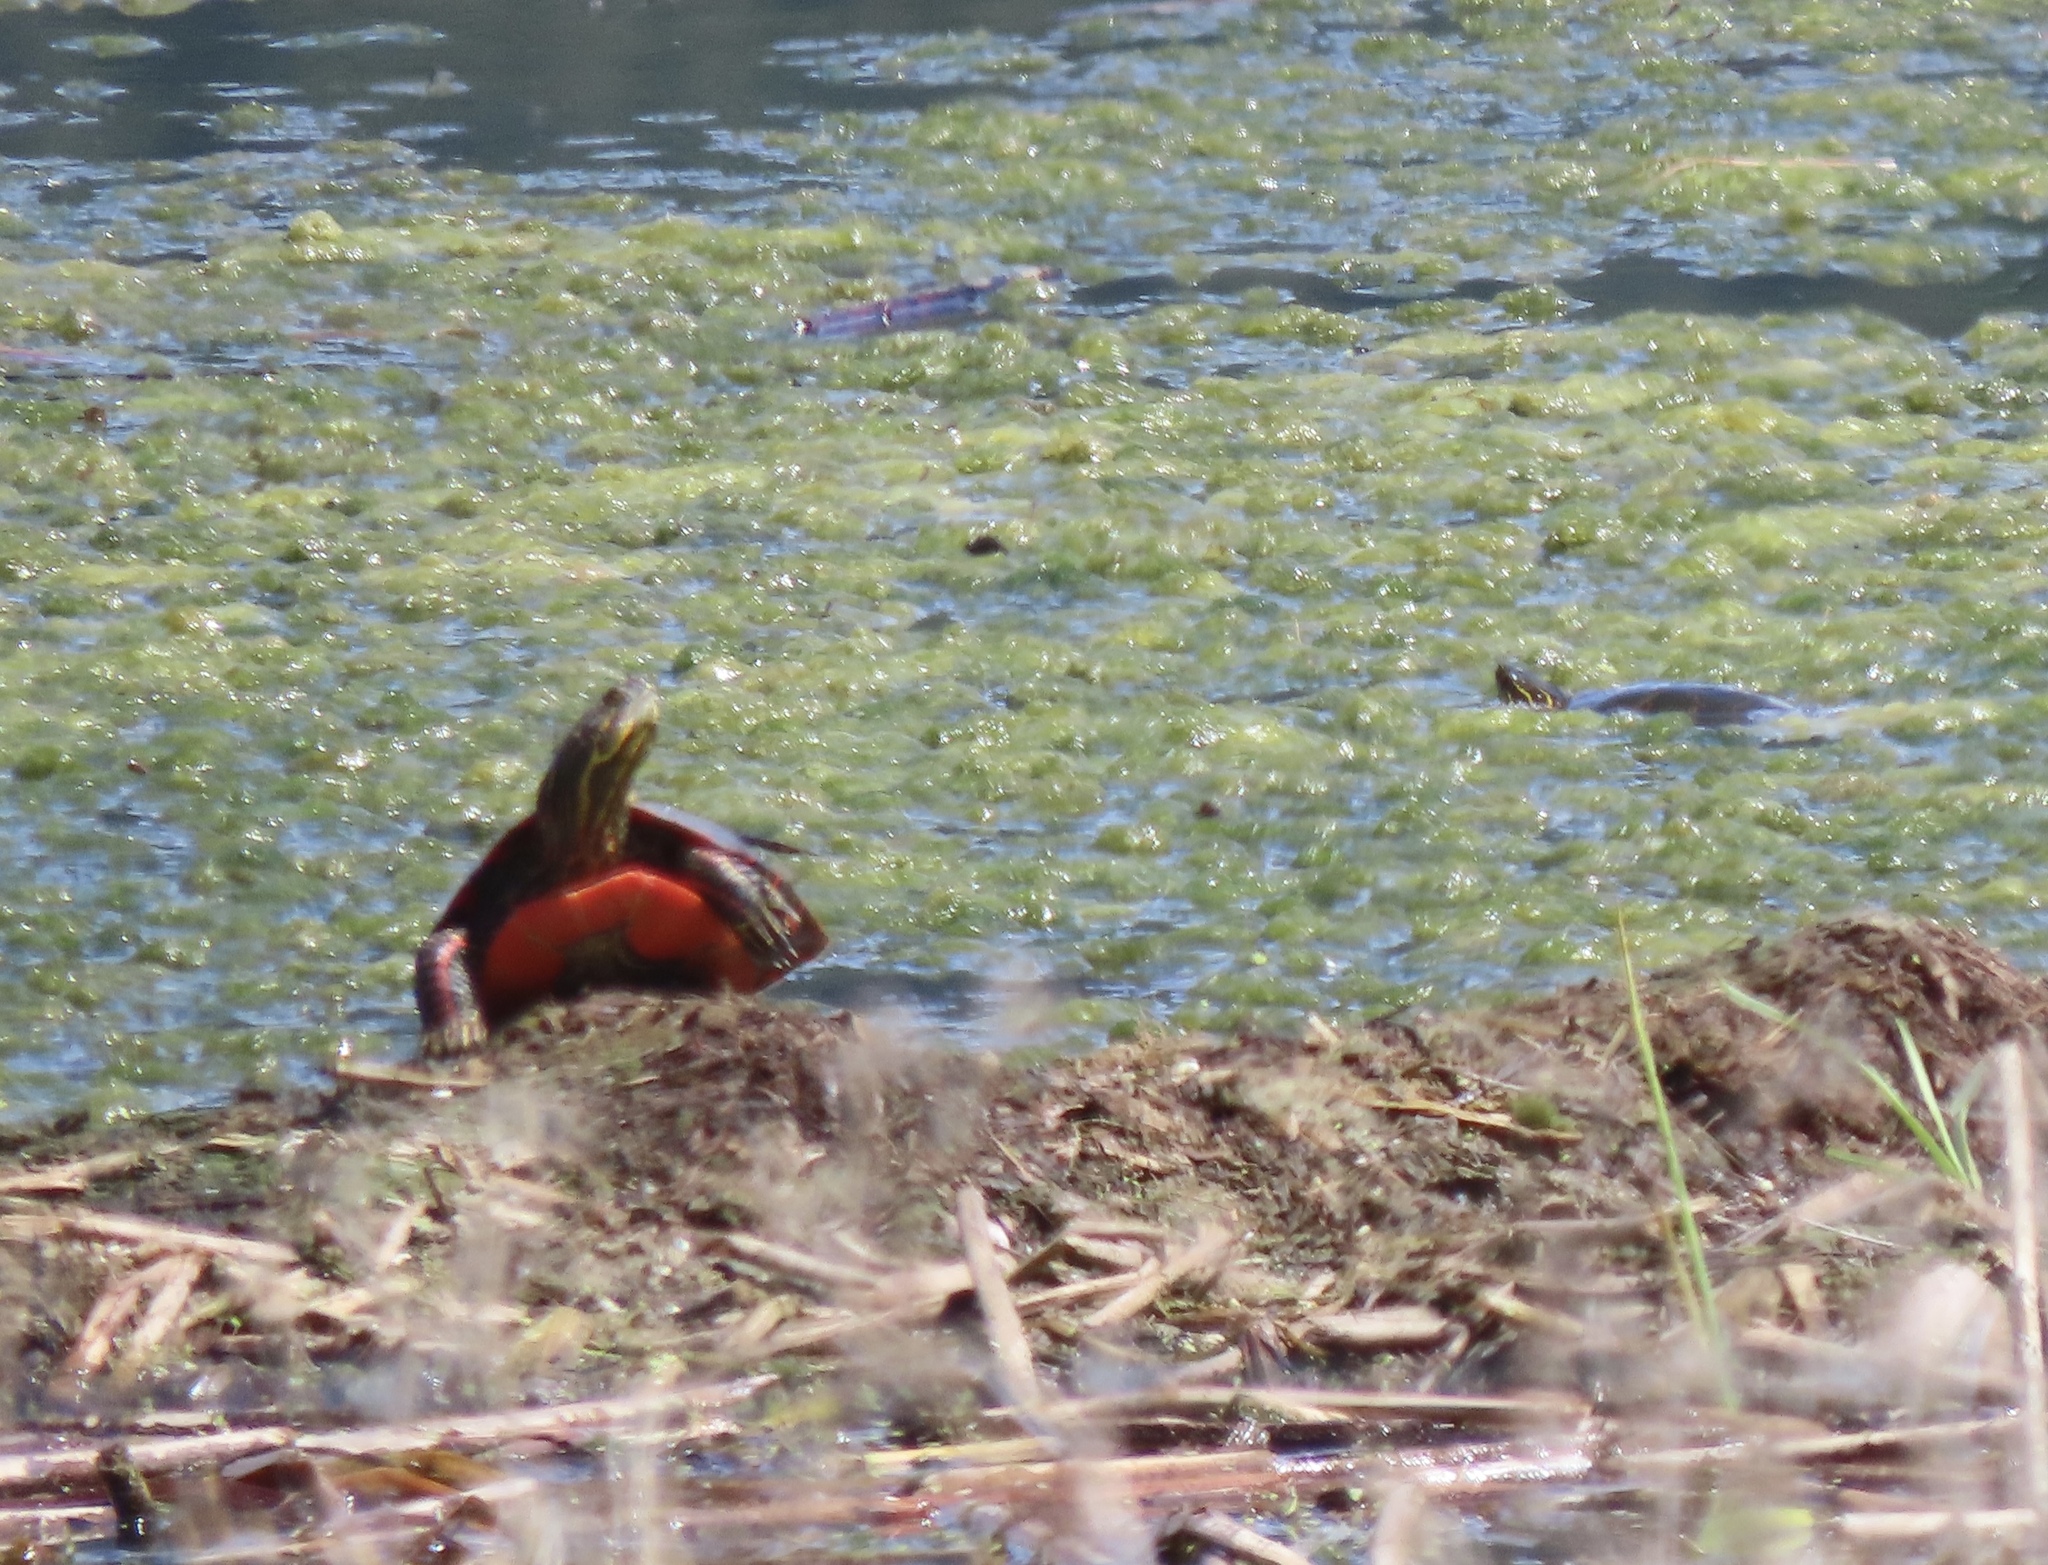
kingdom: Animalia
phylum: Chordata
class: Testudines
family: Emydidae
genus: Chrysemys
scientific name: Chrysemys picta
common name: Painted turtle
